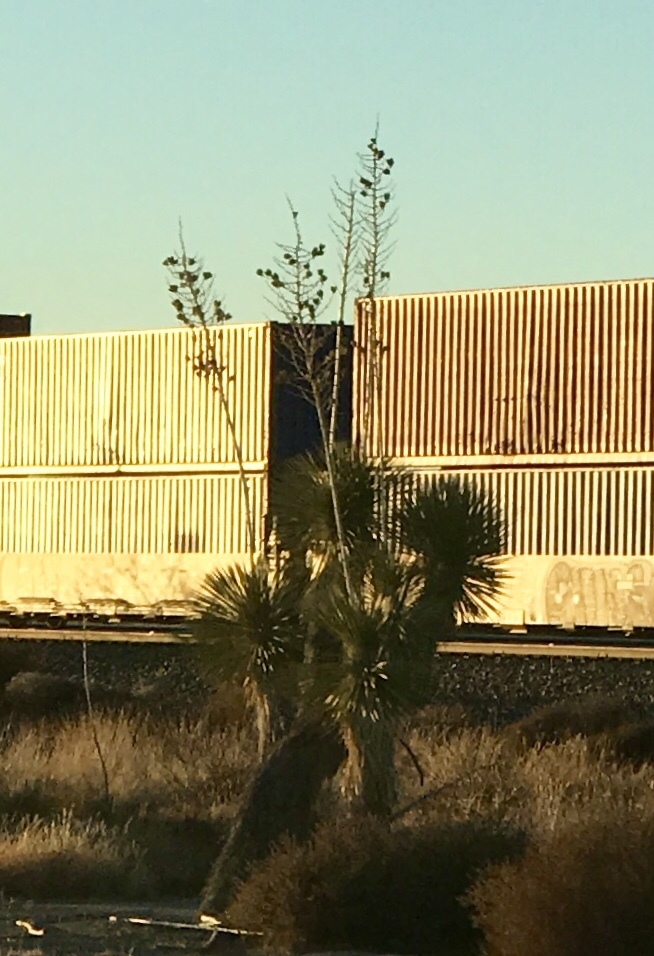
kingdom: Plantae
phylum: Tracheophyta
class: Liliopsida
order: Asparagales
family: Asparagaceae
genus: Yucca
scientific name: Yucca elata
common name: Palmella
